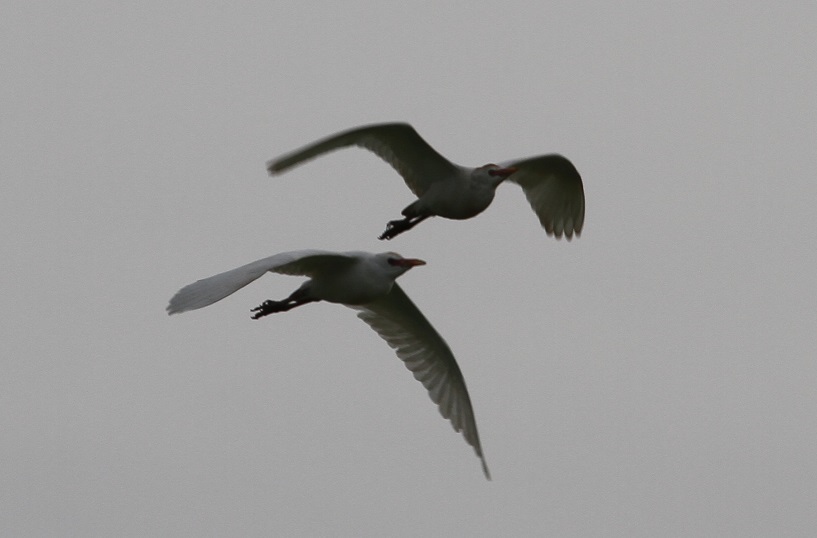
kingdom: Animalia
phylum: Chordata
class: Aves
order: Pelecaniformes
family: Ardeidae
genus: Bubulcus
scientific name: Bubulcus ibis
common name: Cattle egret
